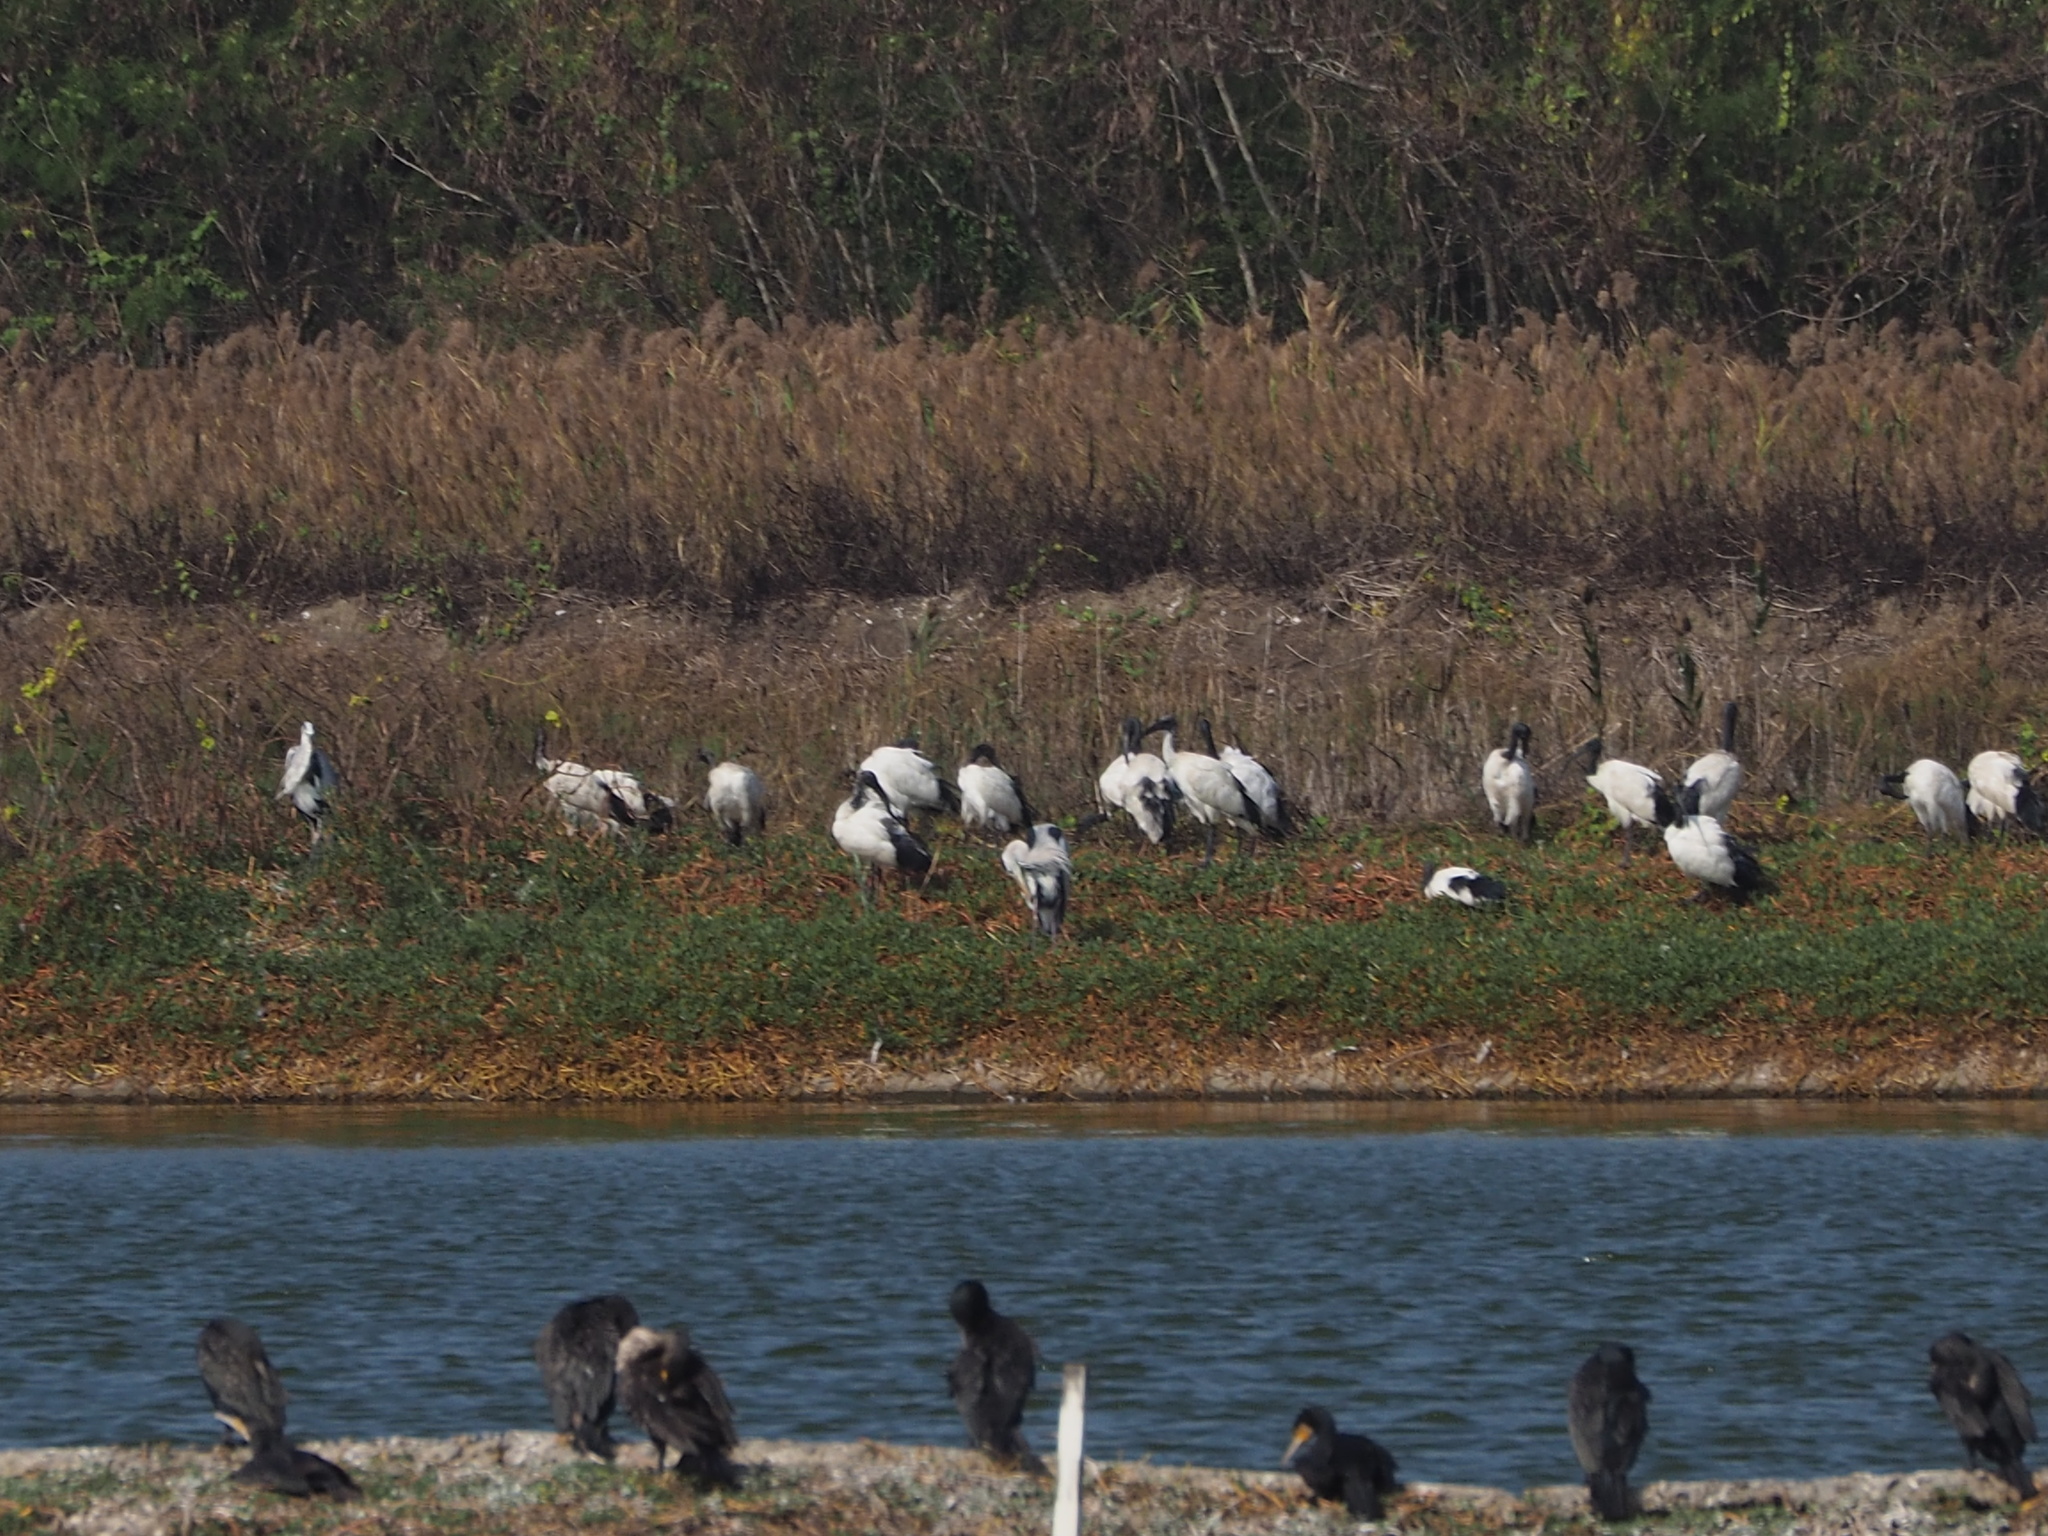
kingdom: Animalia
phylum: Chordata
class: Aves
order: Pelecaniformes
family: Threskiornithidae
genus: Threskiornis
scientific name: Threskiornis aethiopicus
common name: Sacred ibis
